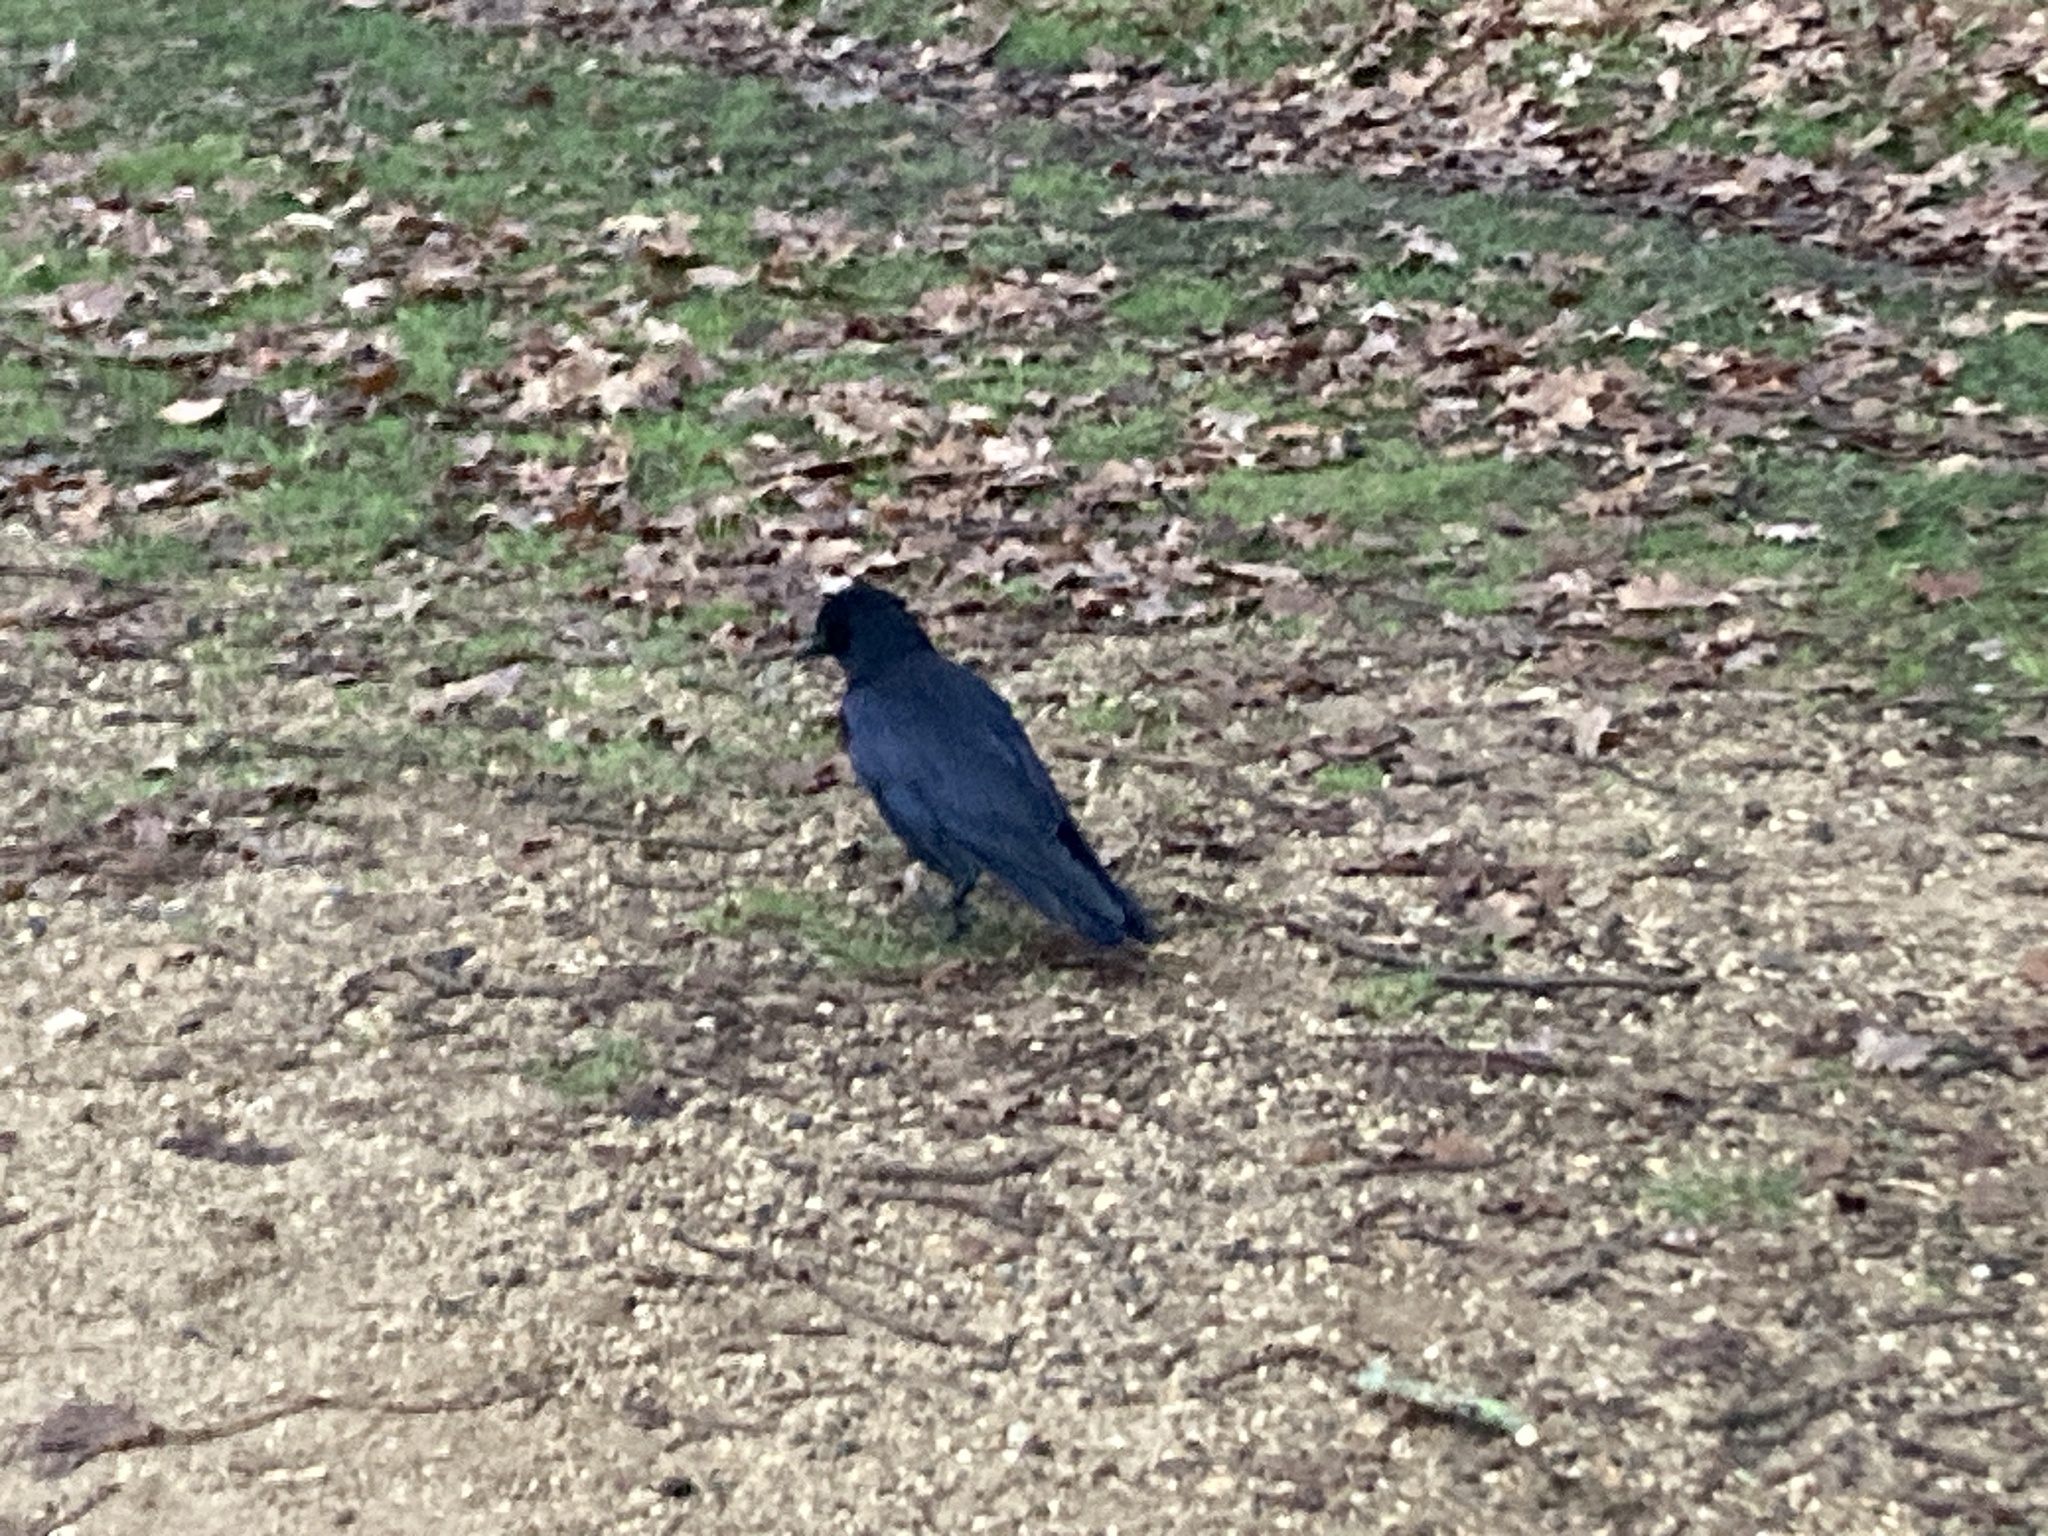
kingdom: Animalia
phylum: Chordata
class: Aves
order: Passeriformes
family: Corvidae
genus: Corvus
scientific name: Corvus corone
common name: Carrion crow
